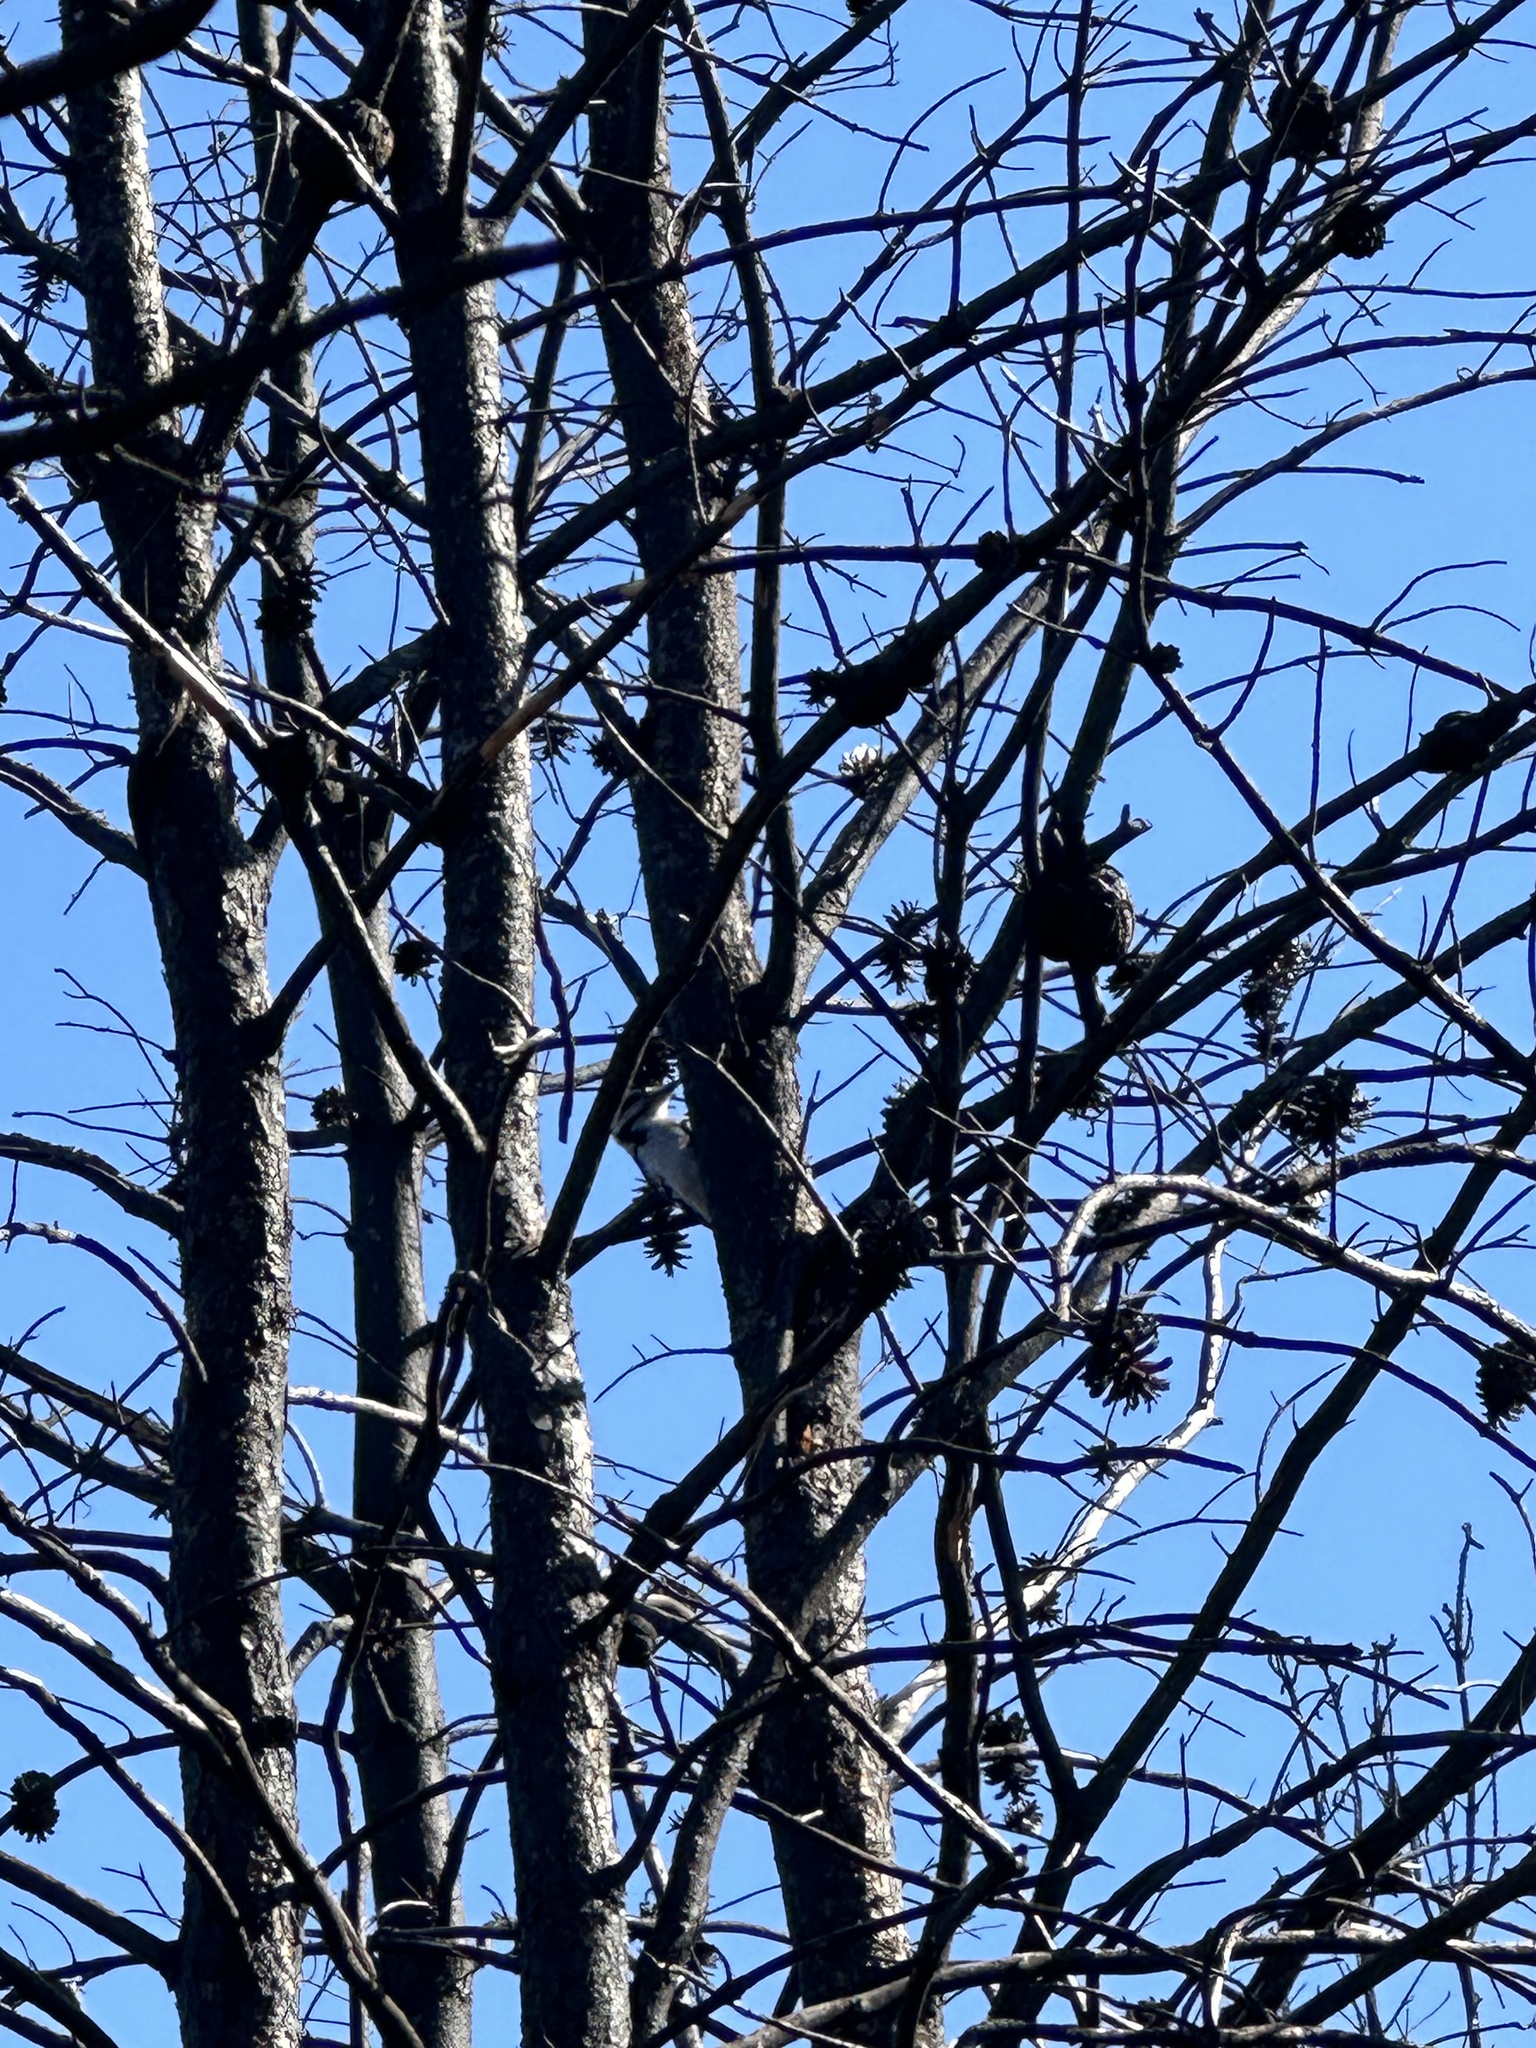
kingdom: Animalia
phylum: Chordata
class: Aves
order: Piciformes
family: Picidae
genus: Leuconotopicus
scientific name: Leuconotopicus villosus
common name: Hairy woodpecker
